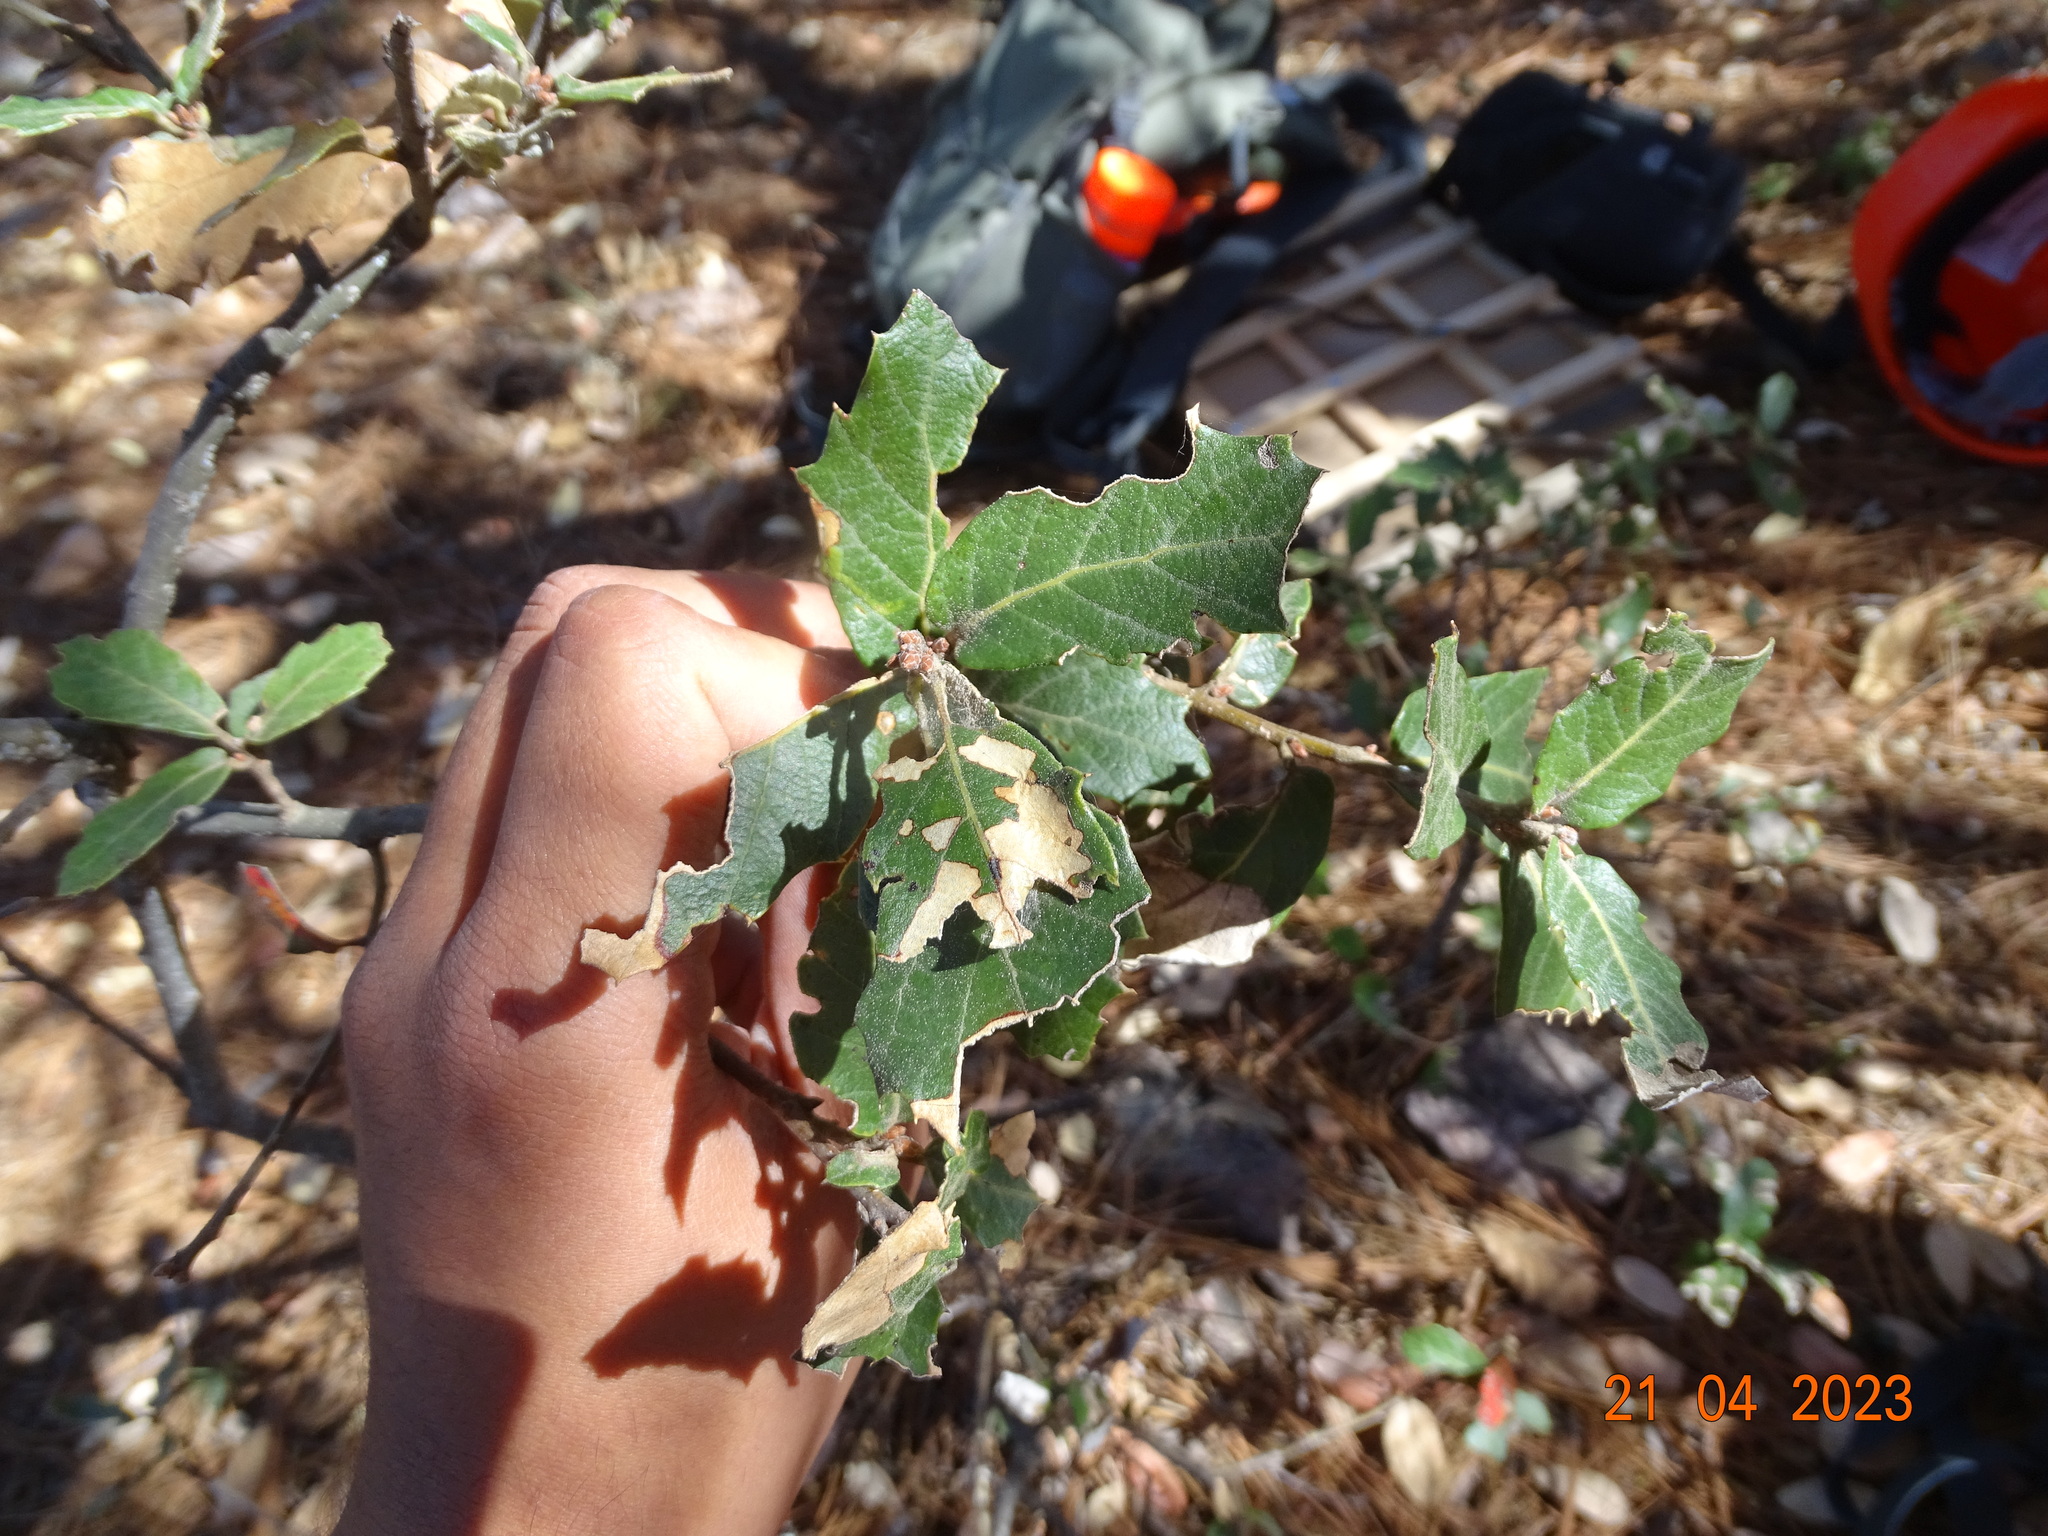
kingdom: Plantae
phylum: Tracheophyta
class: Magnoliopsida
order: Fagales
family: Fagaceae
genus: Quercus
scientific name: Quercus sideroxyla
